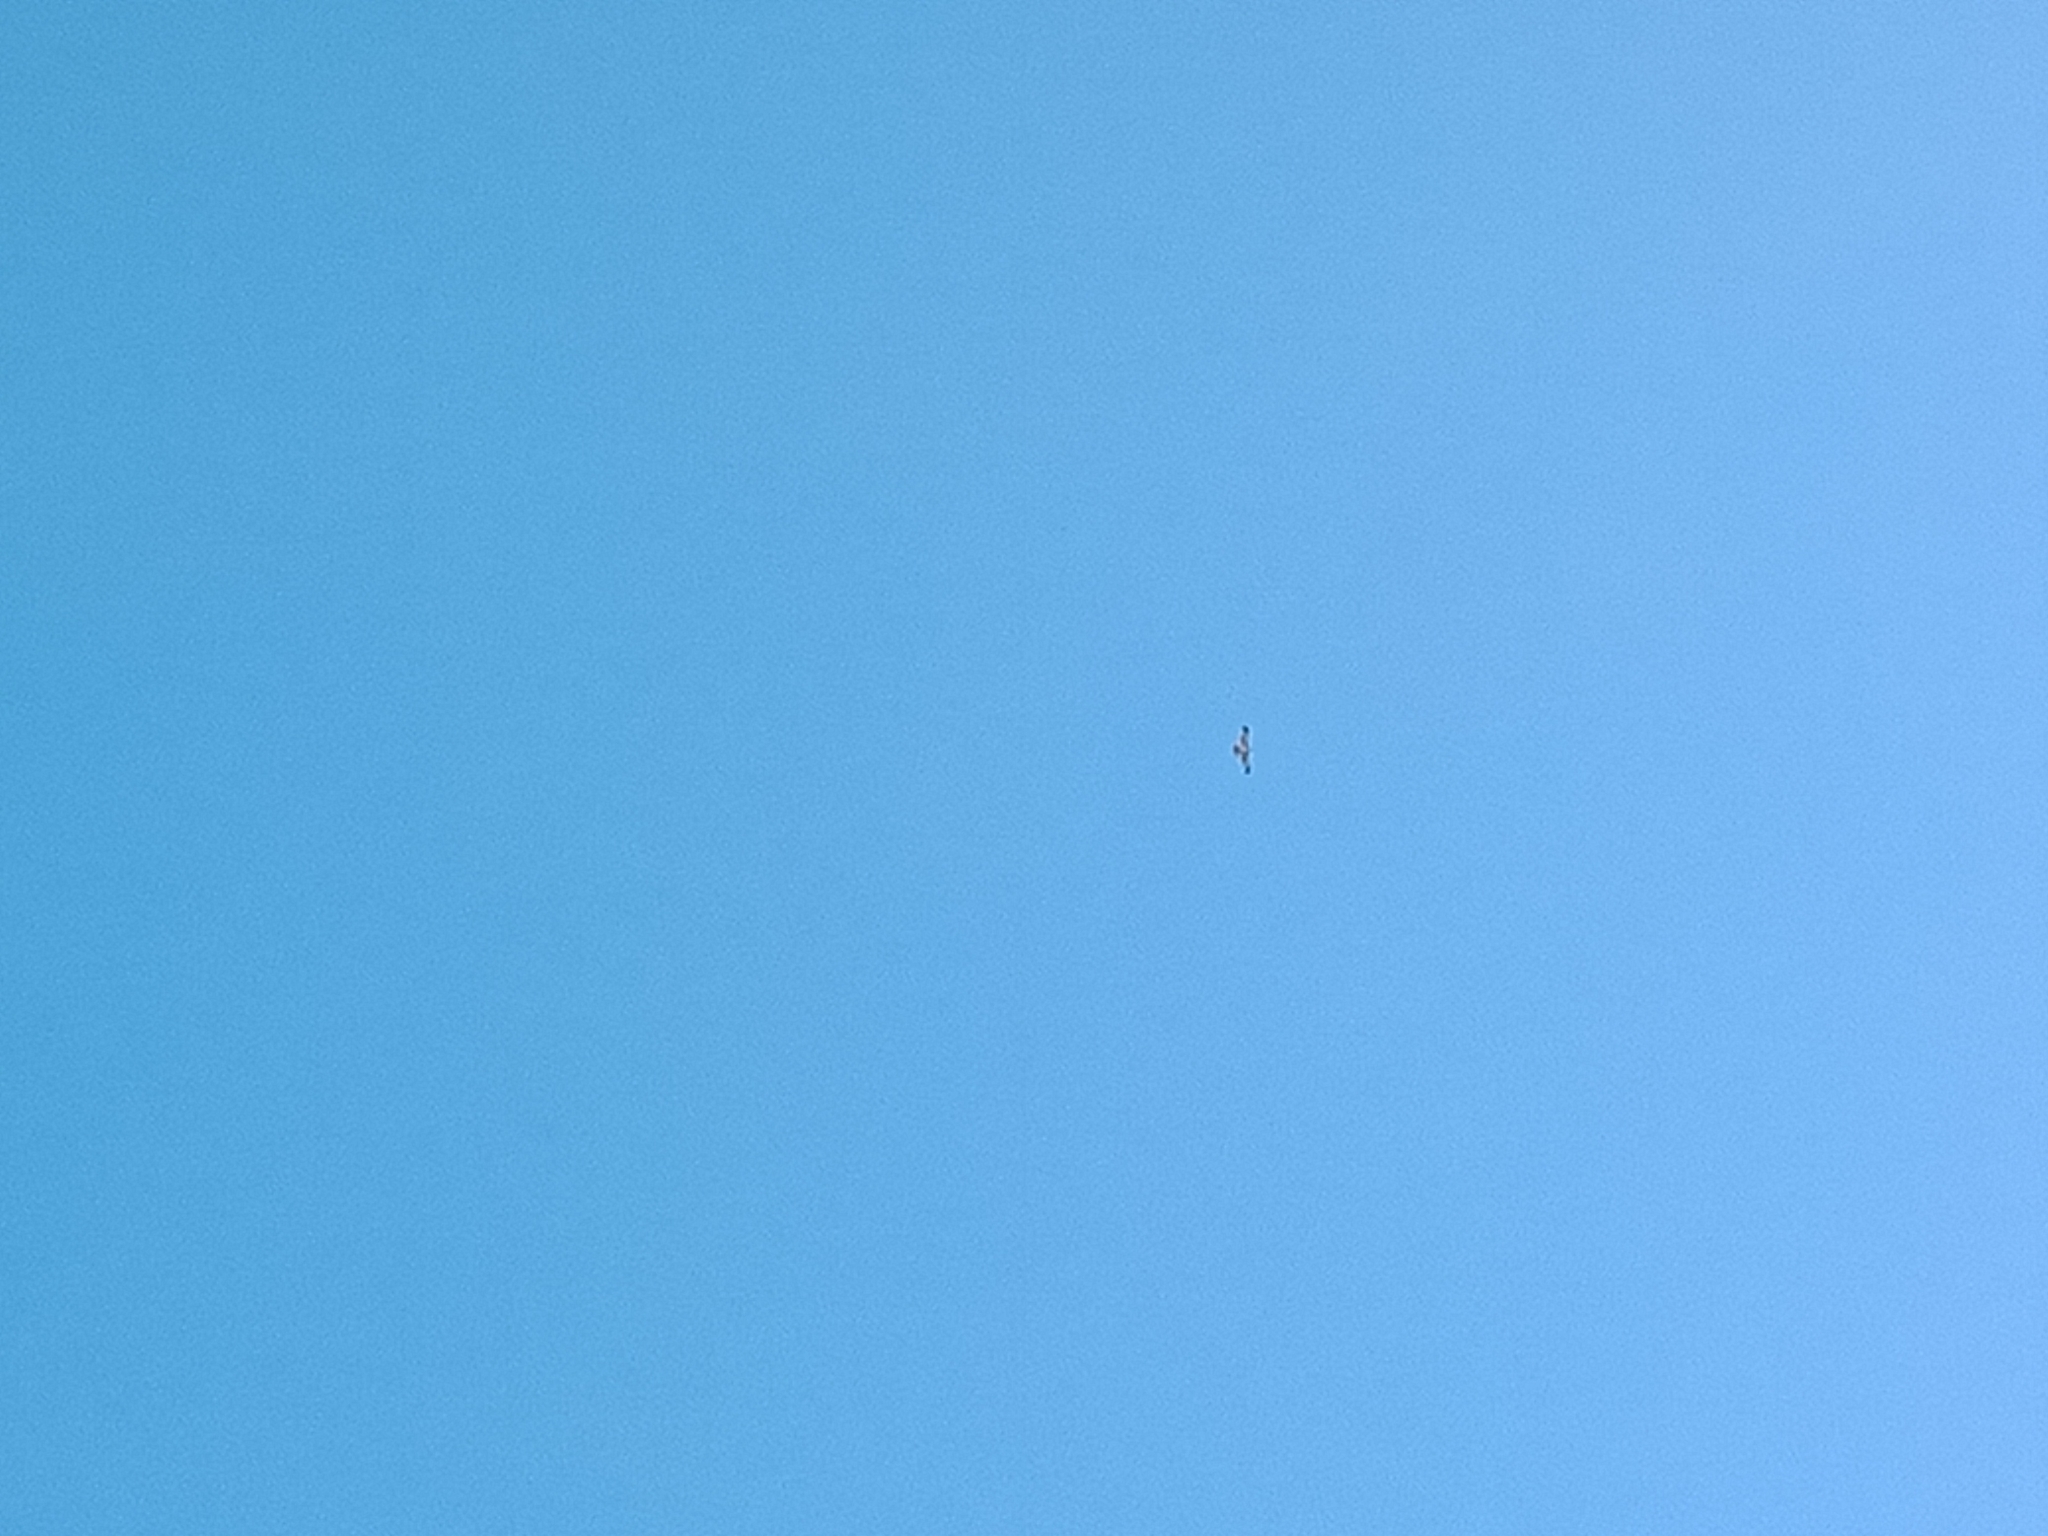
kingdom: Animalia
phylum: Chordata
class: Aves
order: Accipitriformes
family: Accipitridae
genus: Haliaeetus
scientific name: Haliaeetus leucogaster
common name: White-bellied sea eagle
